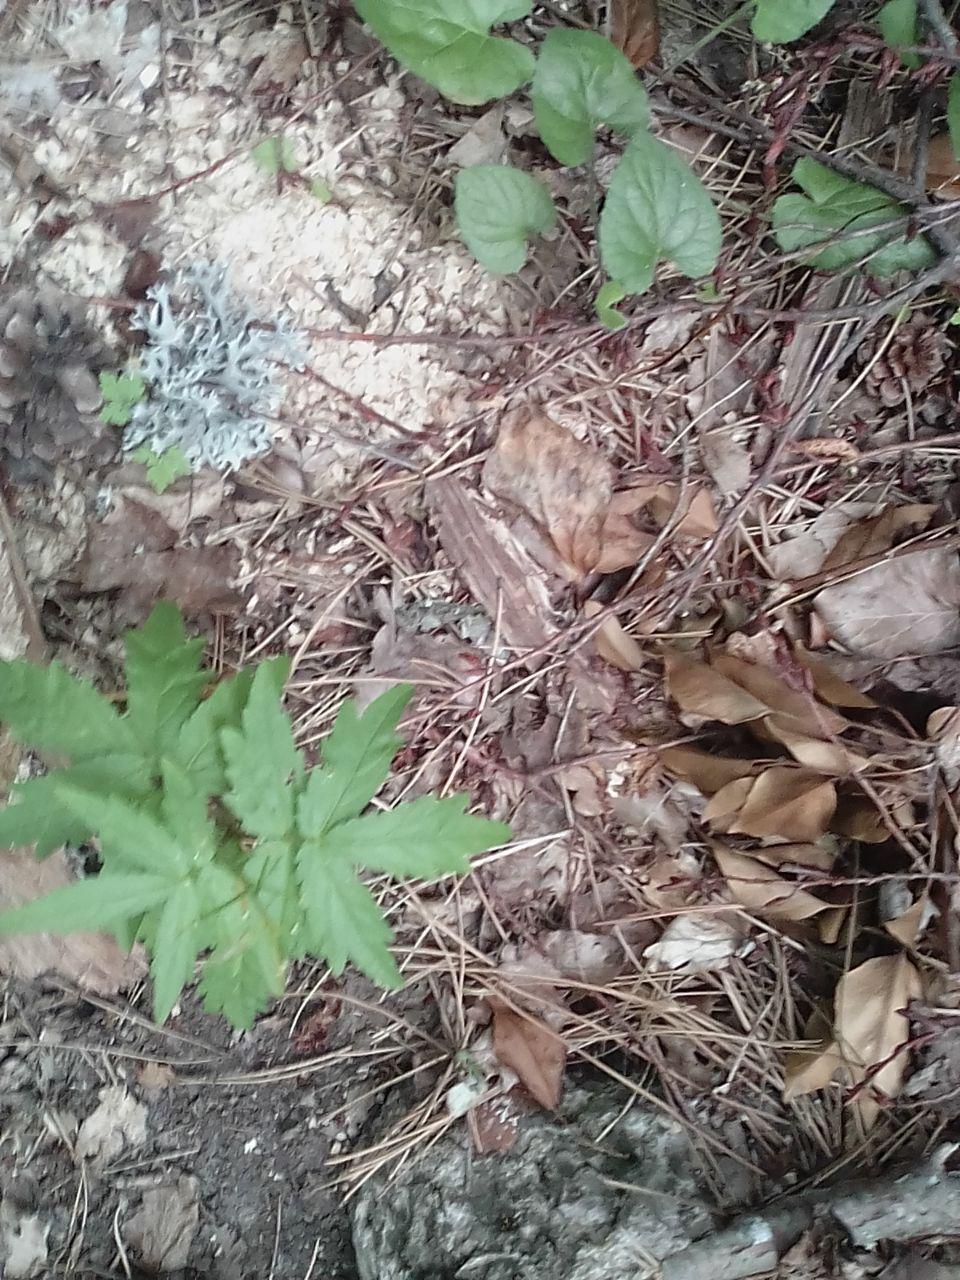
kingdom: Plantae
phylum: Tracheophyta
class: Magnoliopsida
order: Brassicales
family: Brassicaceae
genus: Cardamine
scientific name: Cardamine quinquefolia
